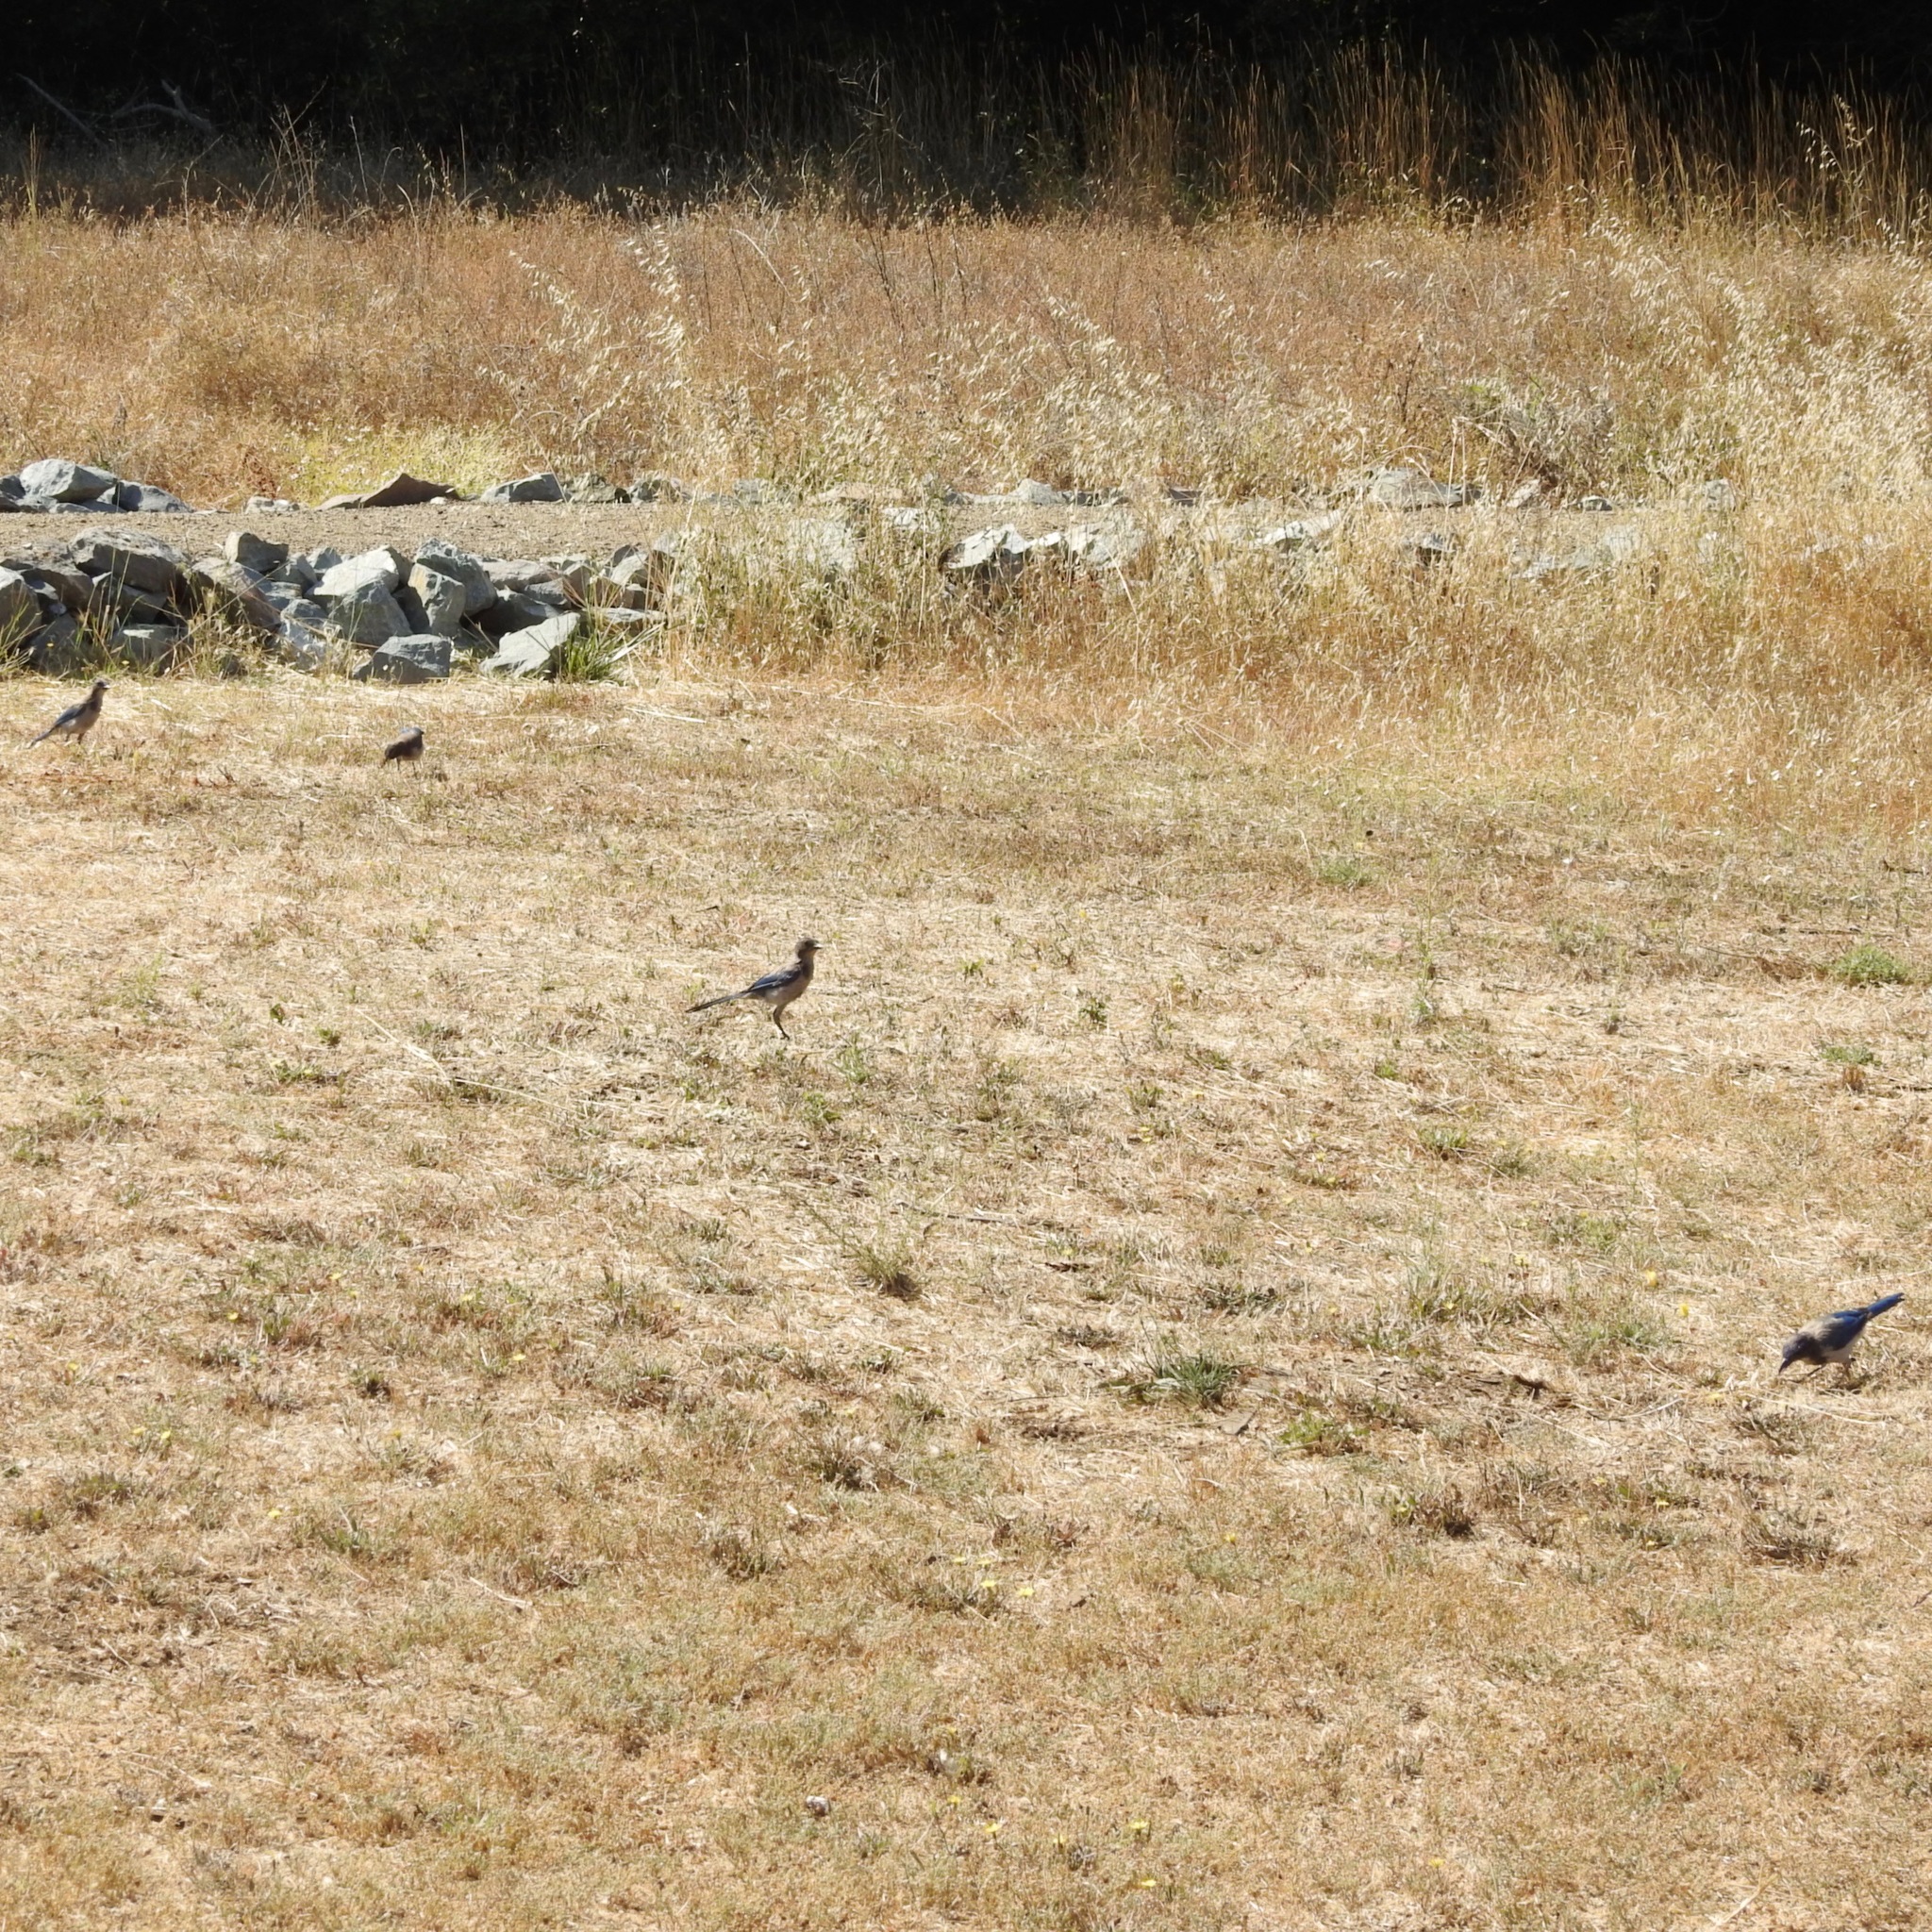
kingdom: Animalia
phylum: Chordata
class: Aves
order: Passeriformes
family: Corvidae
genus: Aphelocoma
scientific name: Aphelocoma californica
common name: California scrub-jay
